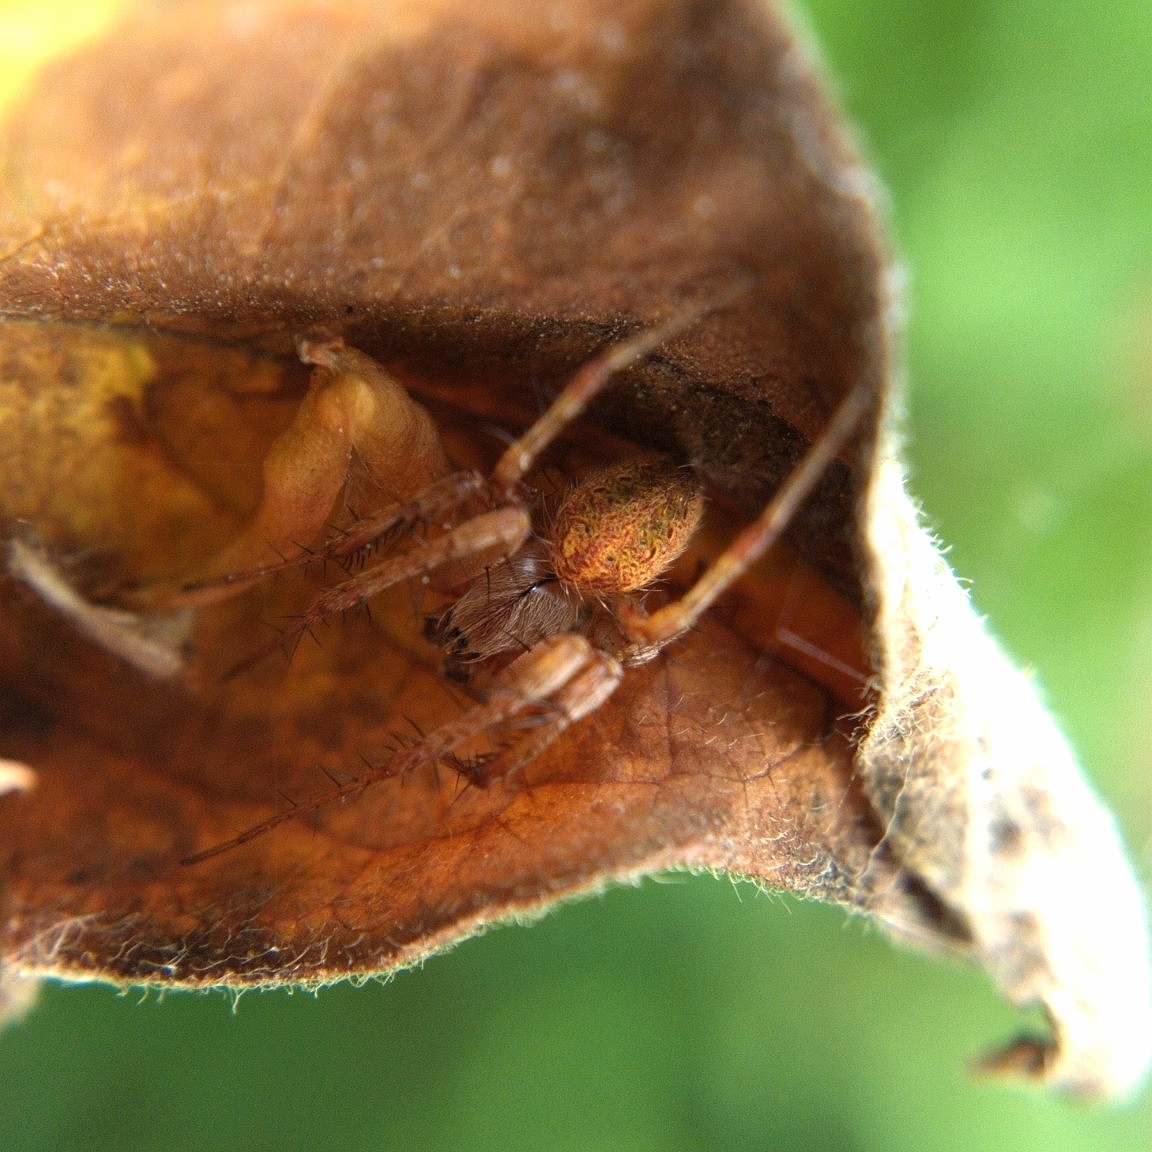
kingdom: Animalia
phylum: Arthropoda
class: Arachnida
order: Araneae
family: Araneidae
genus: Neoscona
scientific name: Neoscona arabesca
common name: Orb weavers
